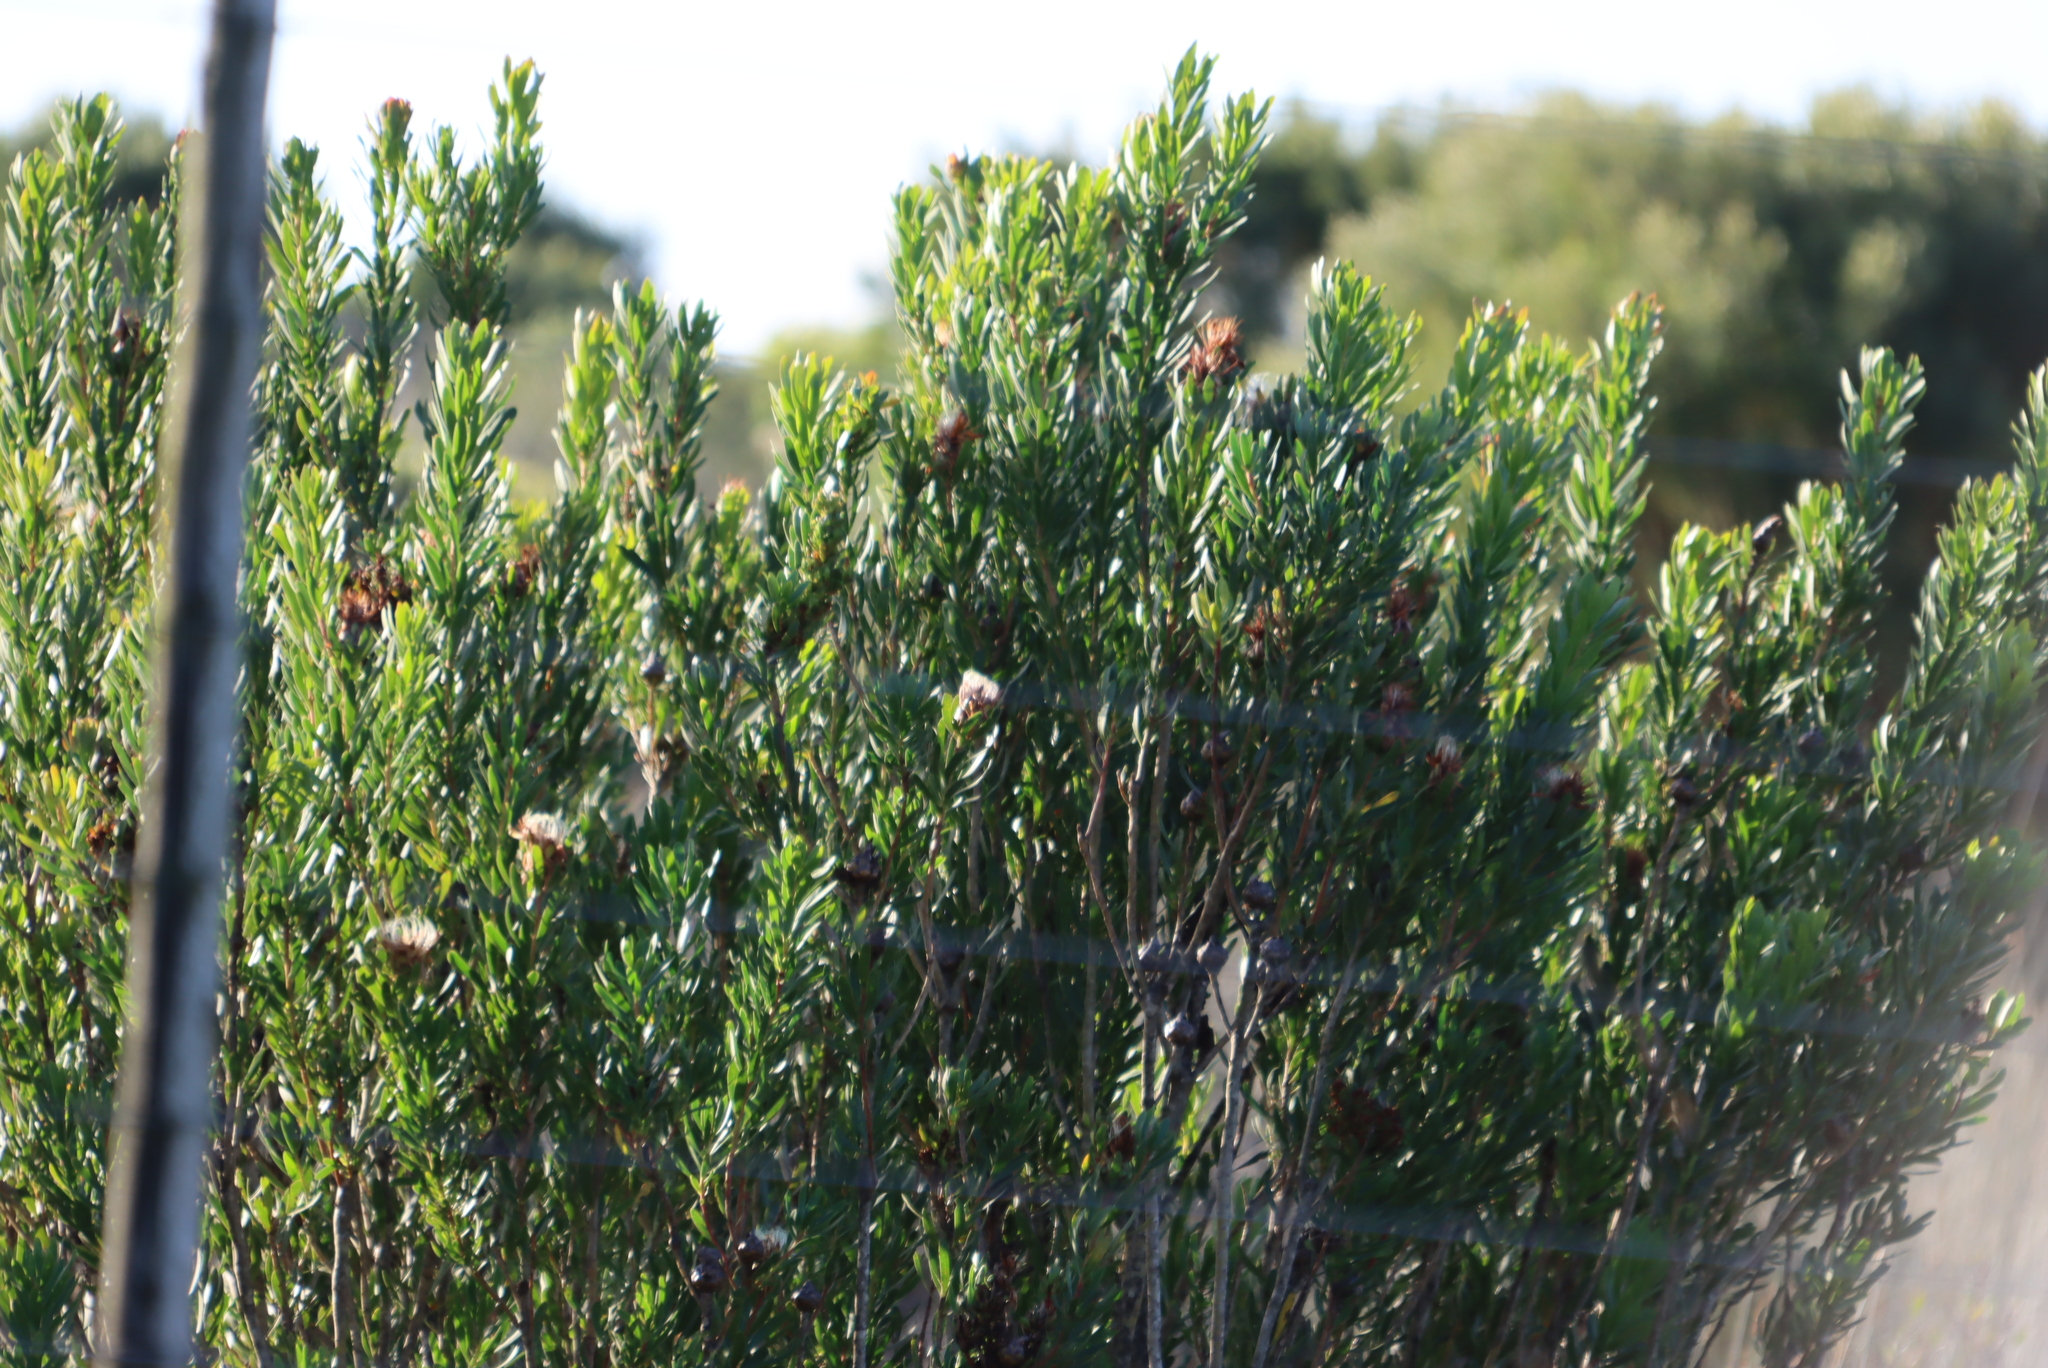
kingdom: Plantae
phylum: Tracheophyta
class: Magnoliopsida
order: Proteales
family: Proteaceae
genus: Protea
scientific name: Protea lanceolata
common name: Lance-leaved protea
